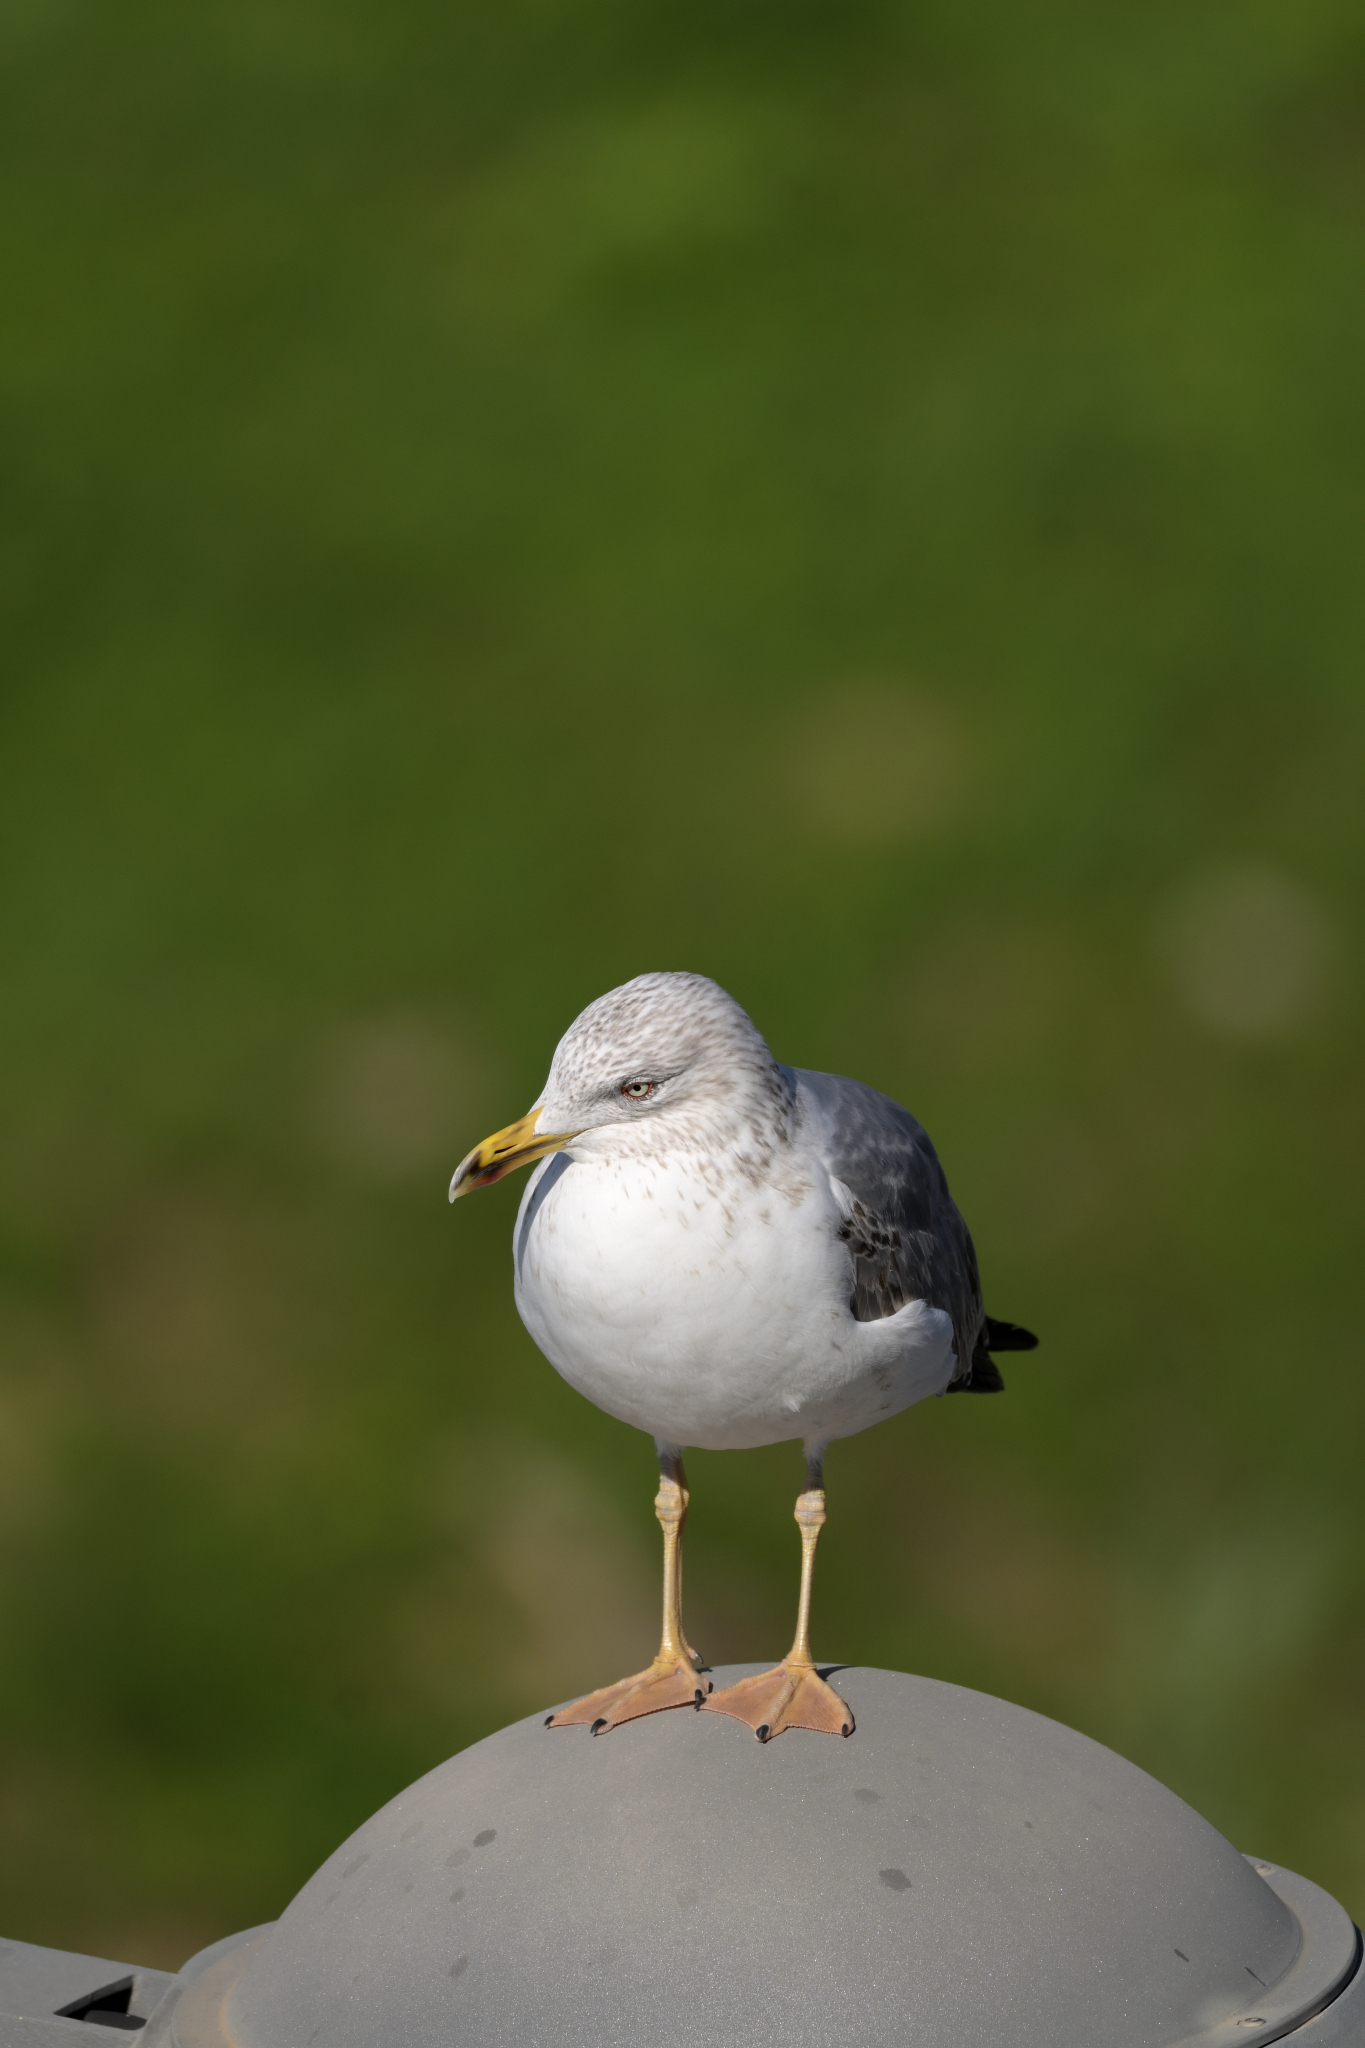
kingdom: Animalia
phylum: Chordata
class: Aves
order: Charadriiformes
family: Laridae
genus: Larus
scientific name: Larus fuscus
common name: Lesser black-backed gull
